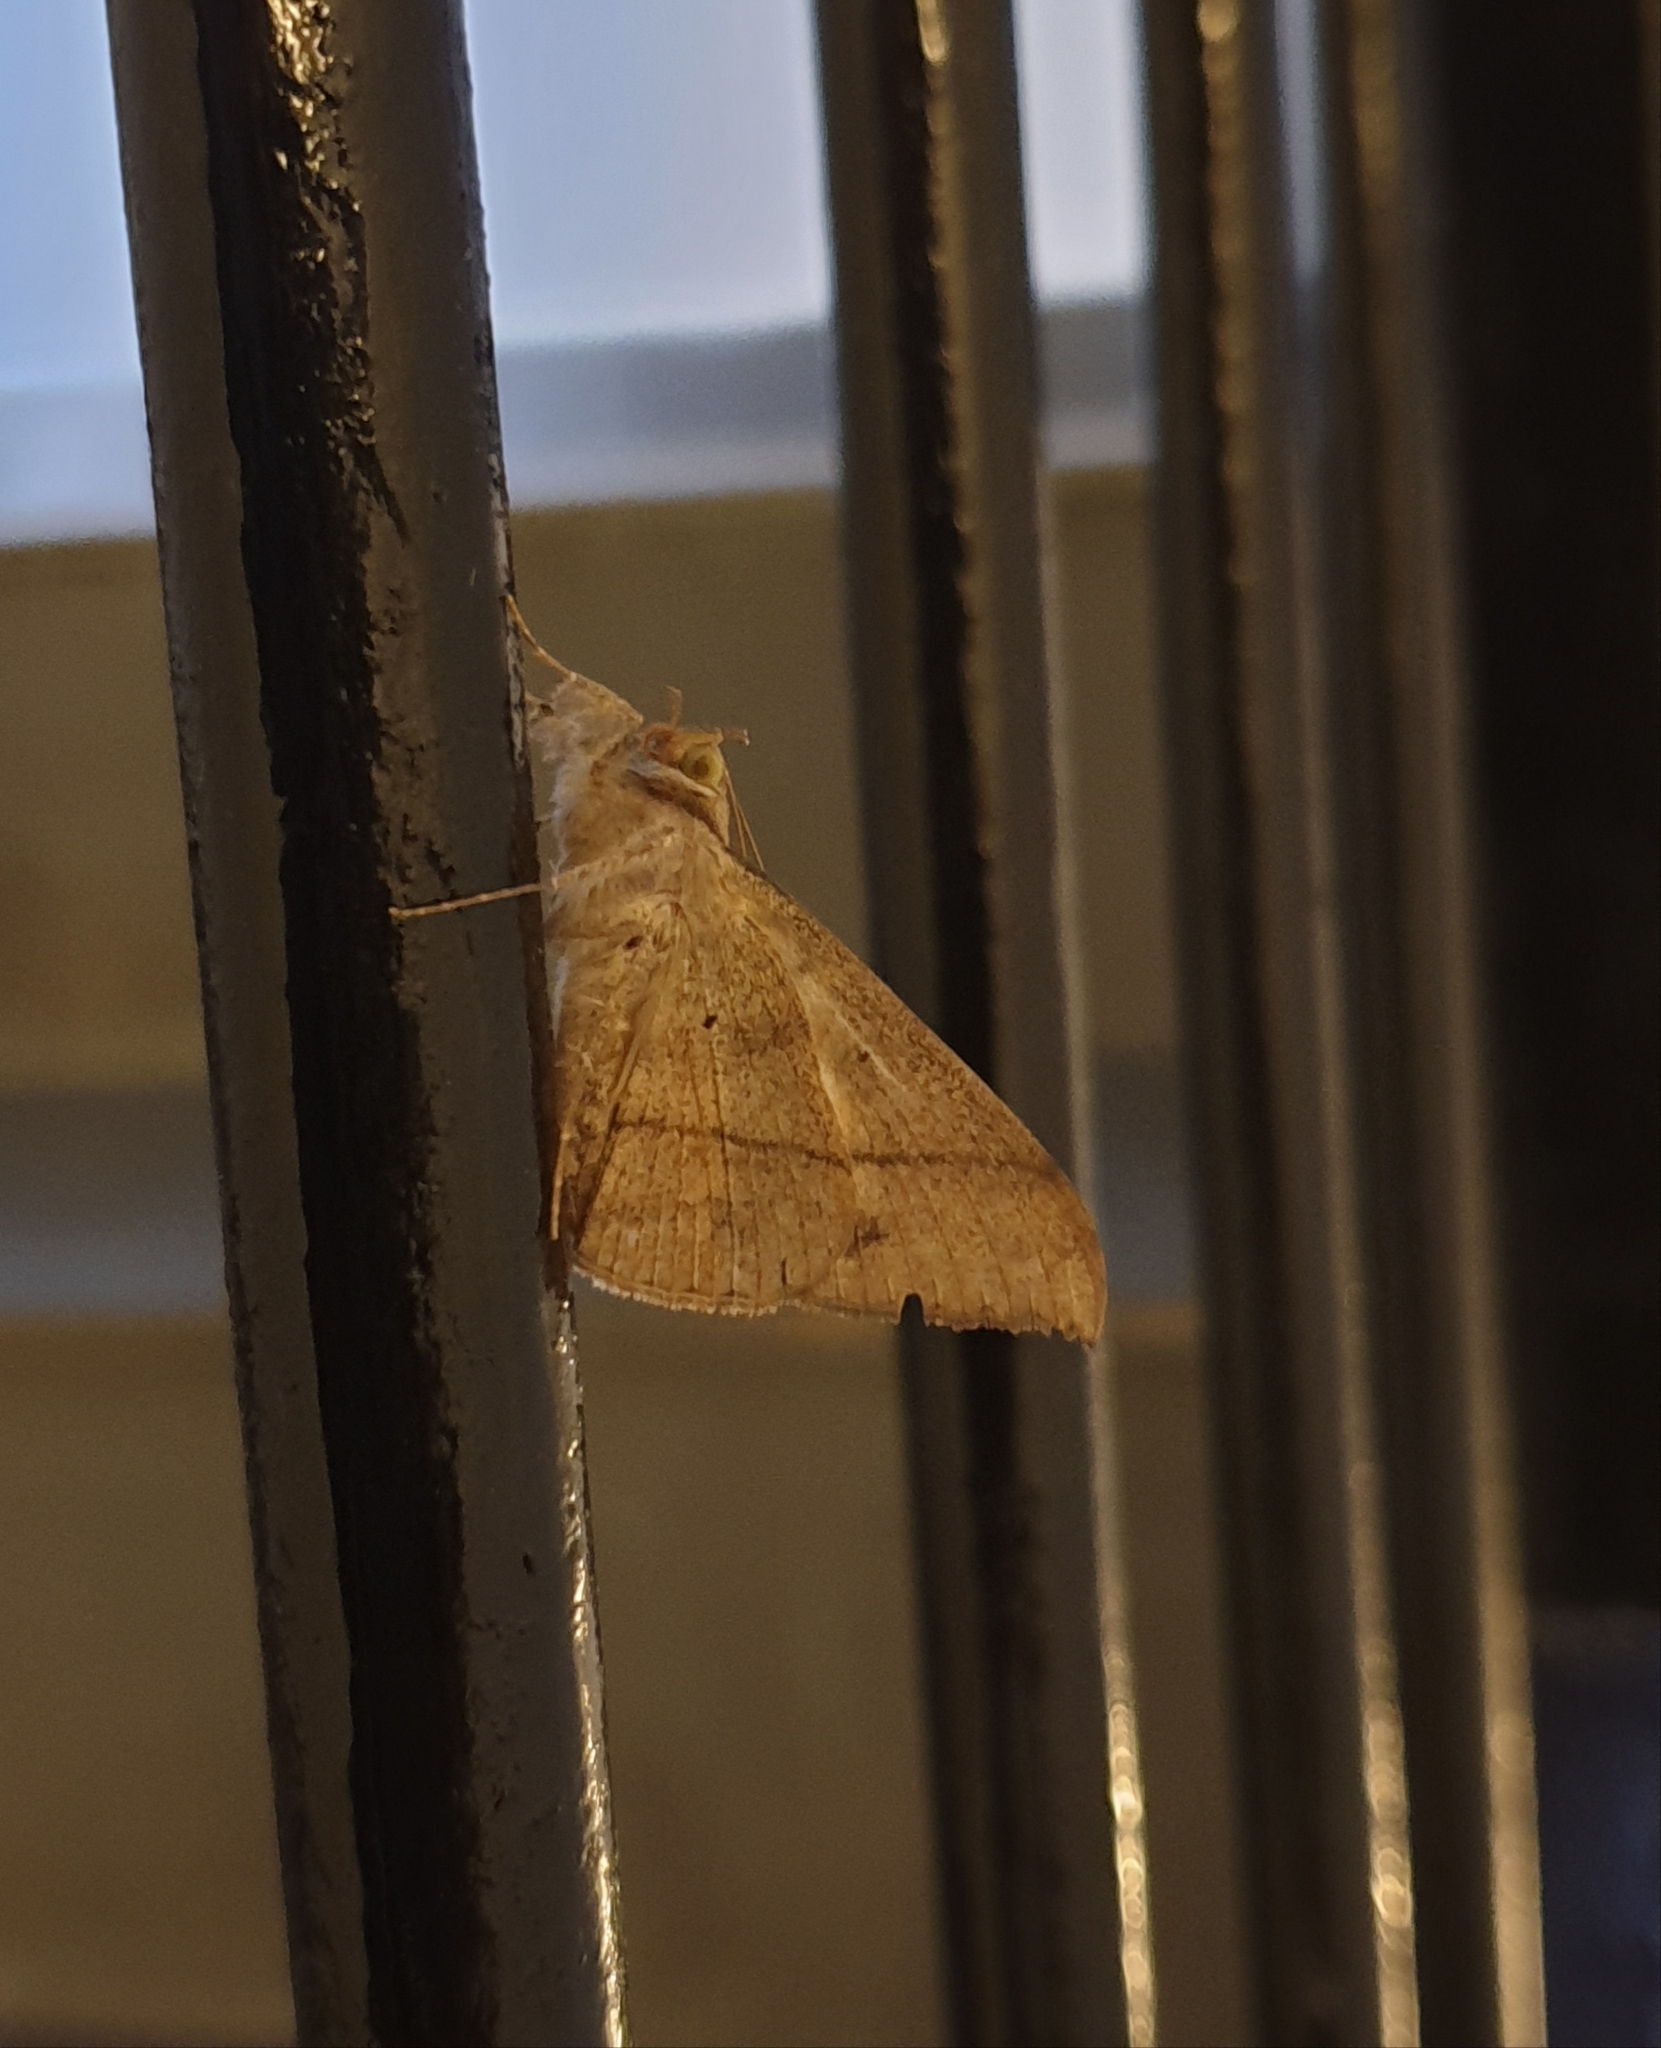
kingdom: Animalia
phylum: Arthropoda
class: Insecta
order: Lepidoptera
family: Erebidae
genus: Oxyodes
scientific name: Oxyodes scrobiculata
